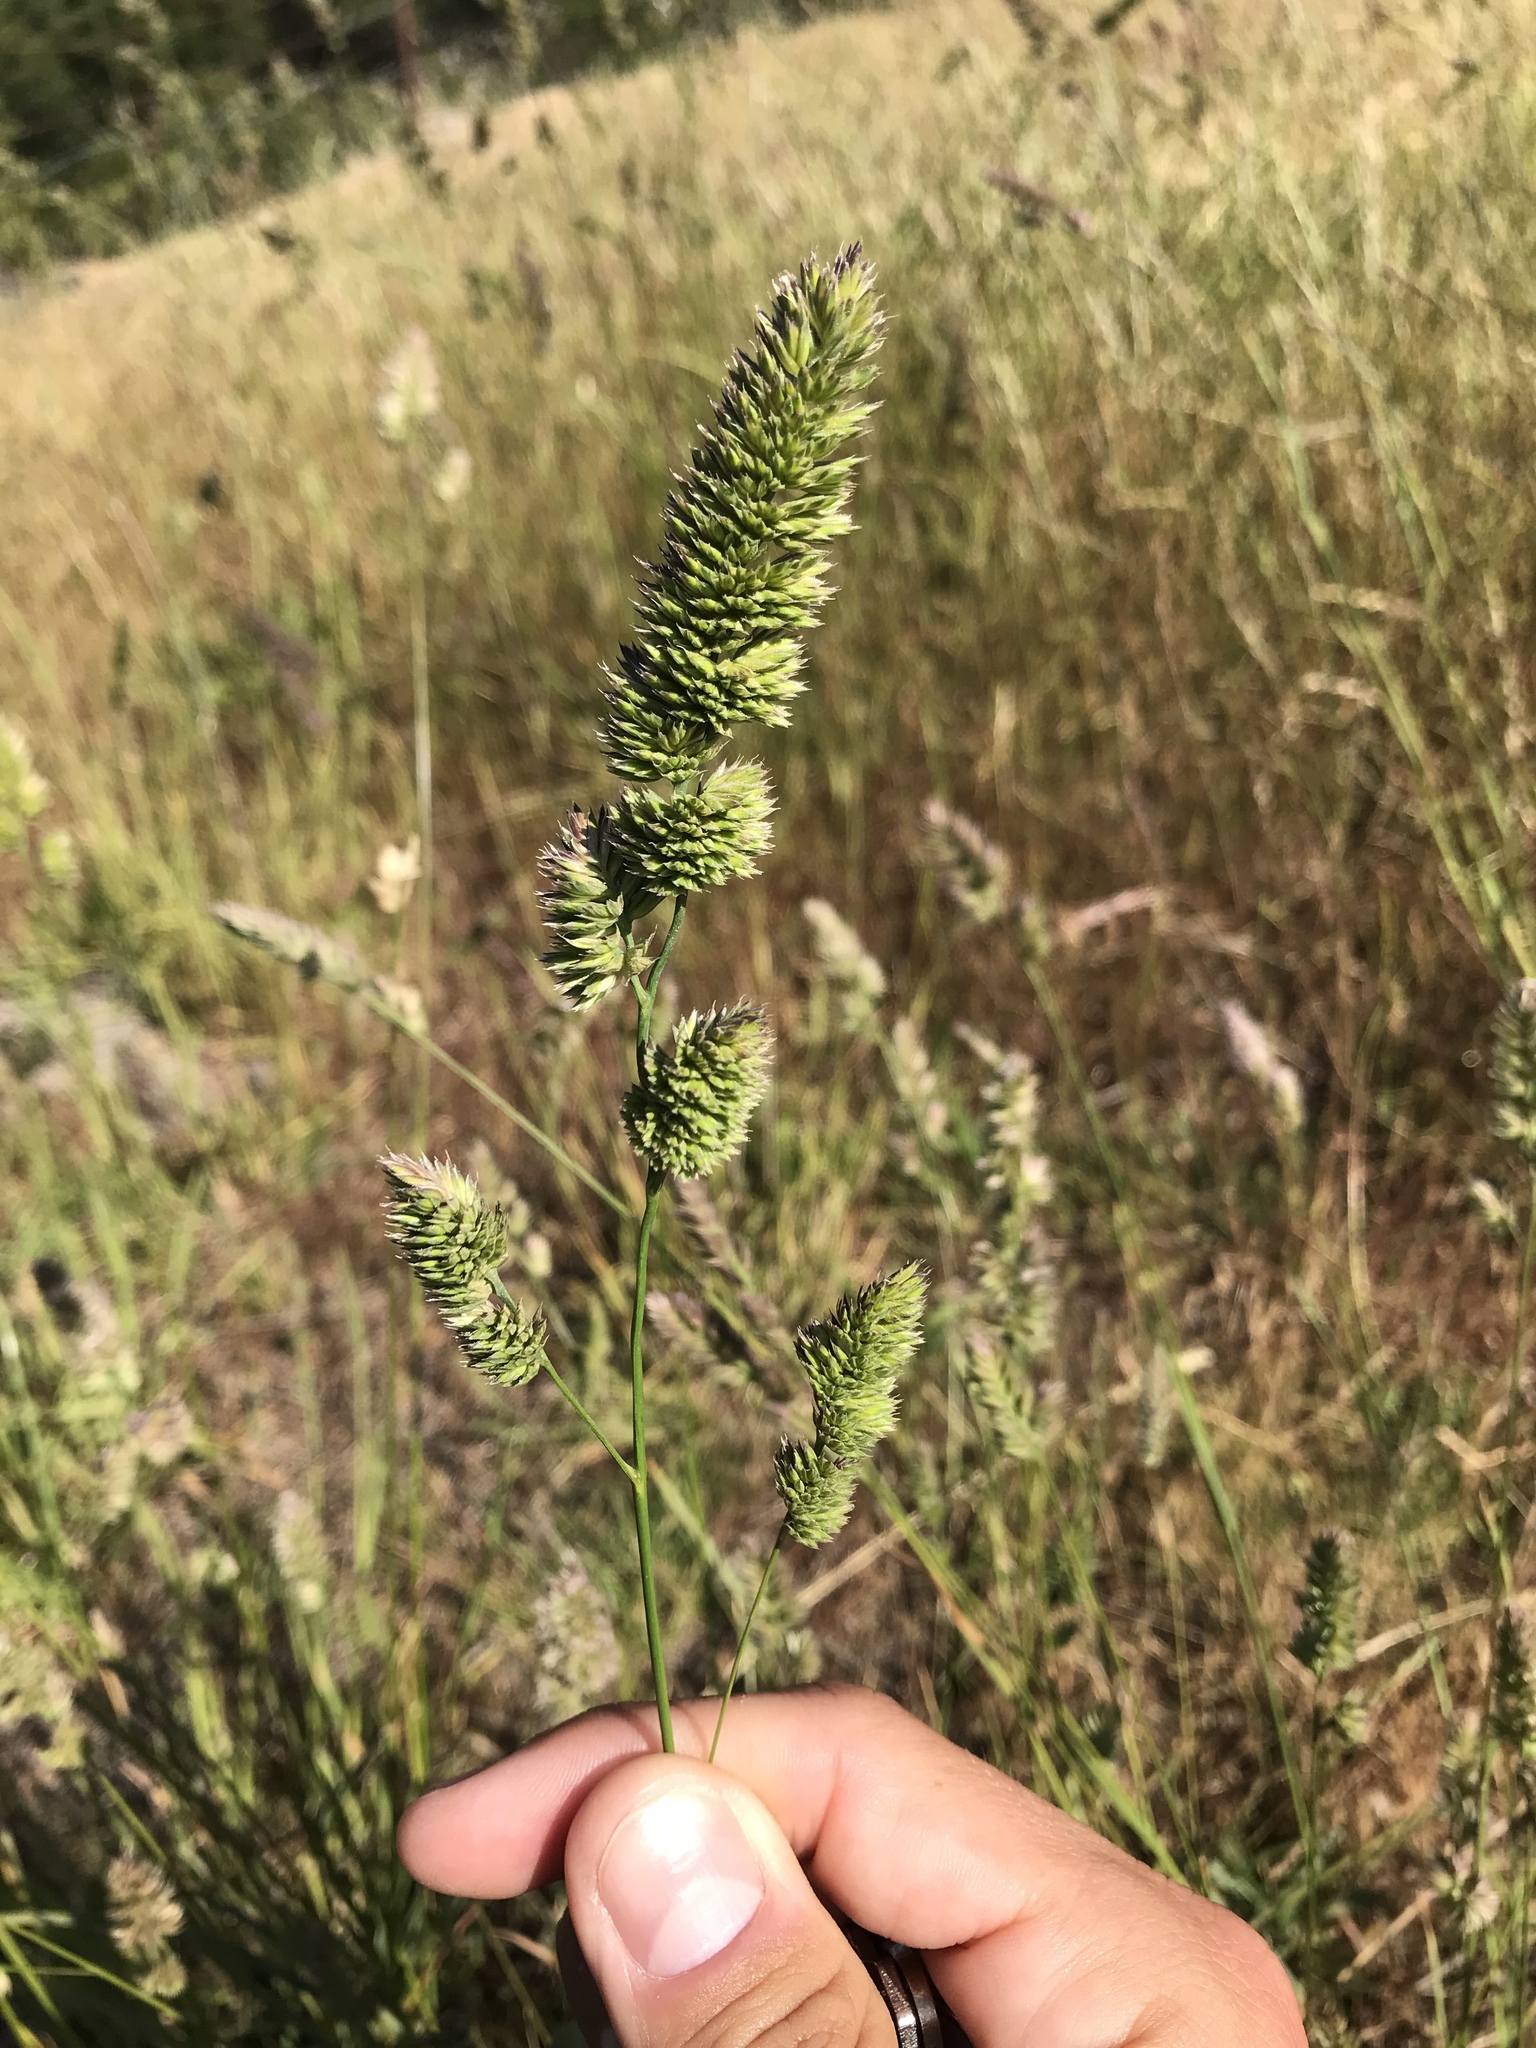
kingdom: Plantae
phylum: Tracheophyta
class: Liliopsida
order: Poales
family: Poaceae
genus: Dactylis
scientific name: Dactylis glomerata
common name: Orchardgrass
